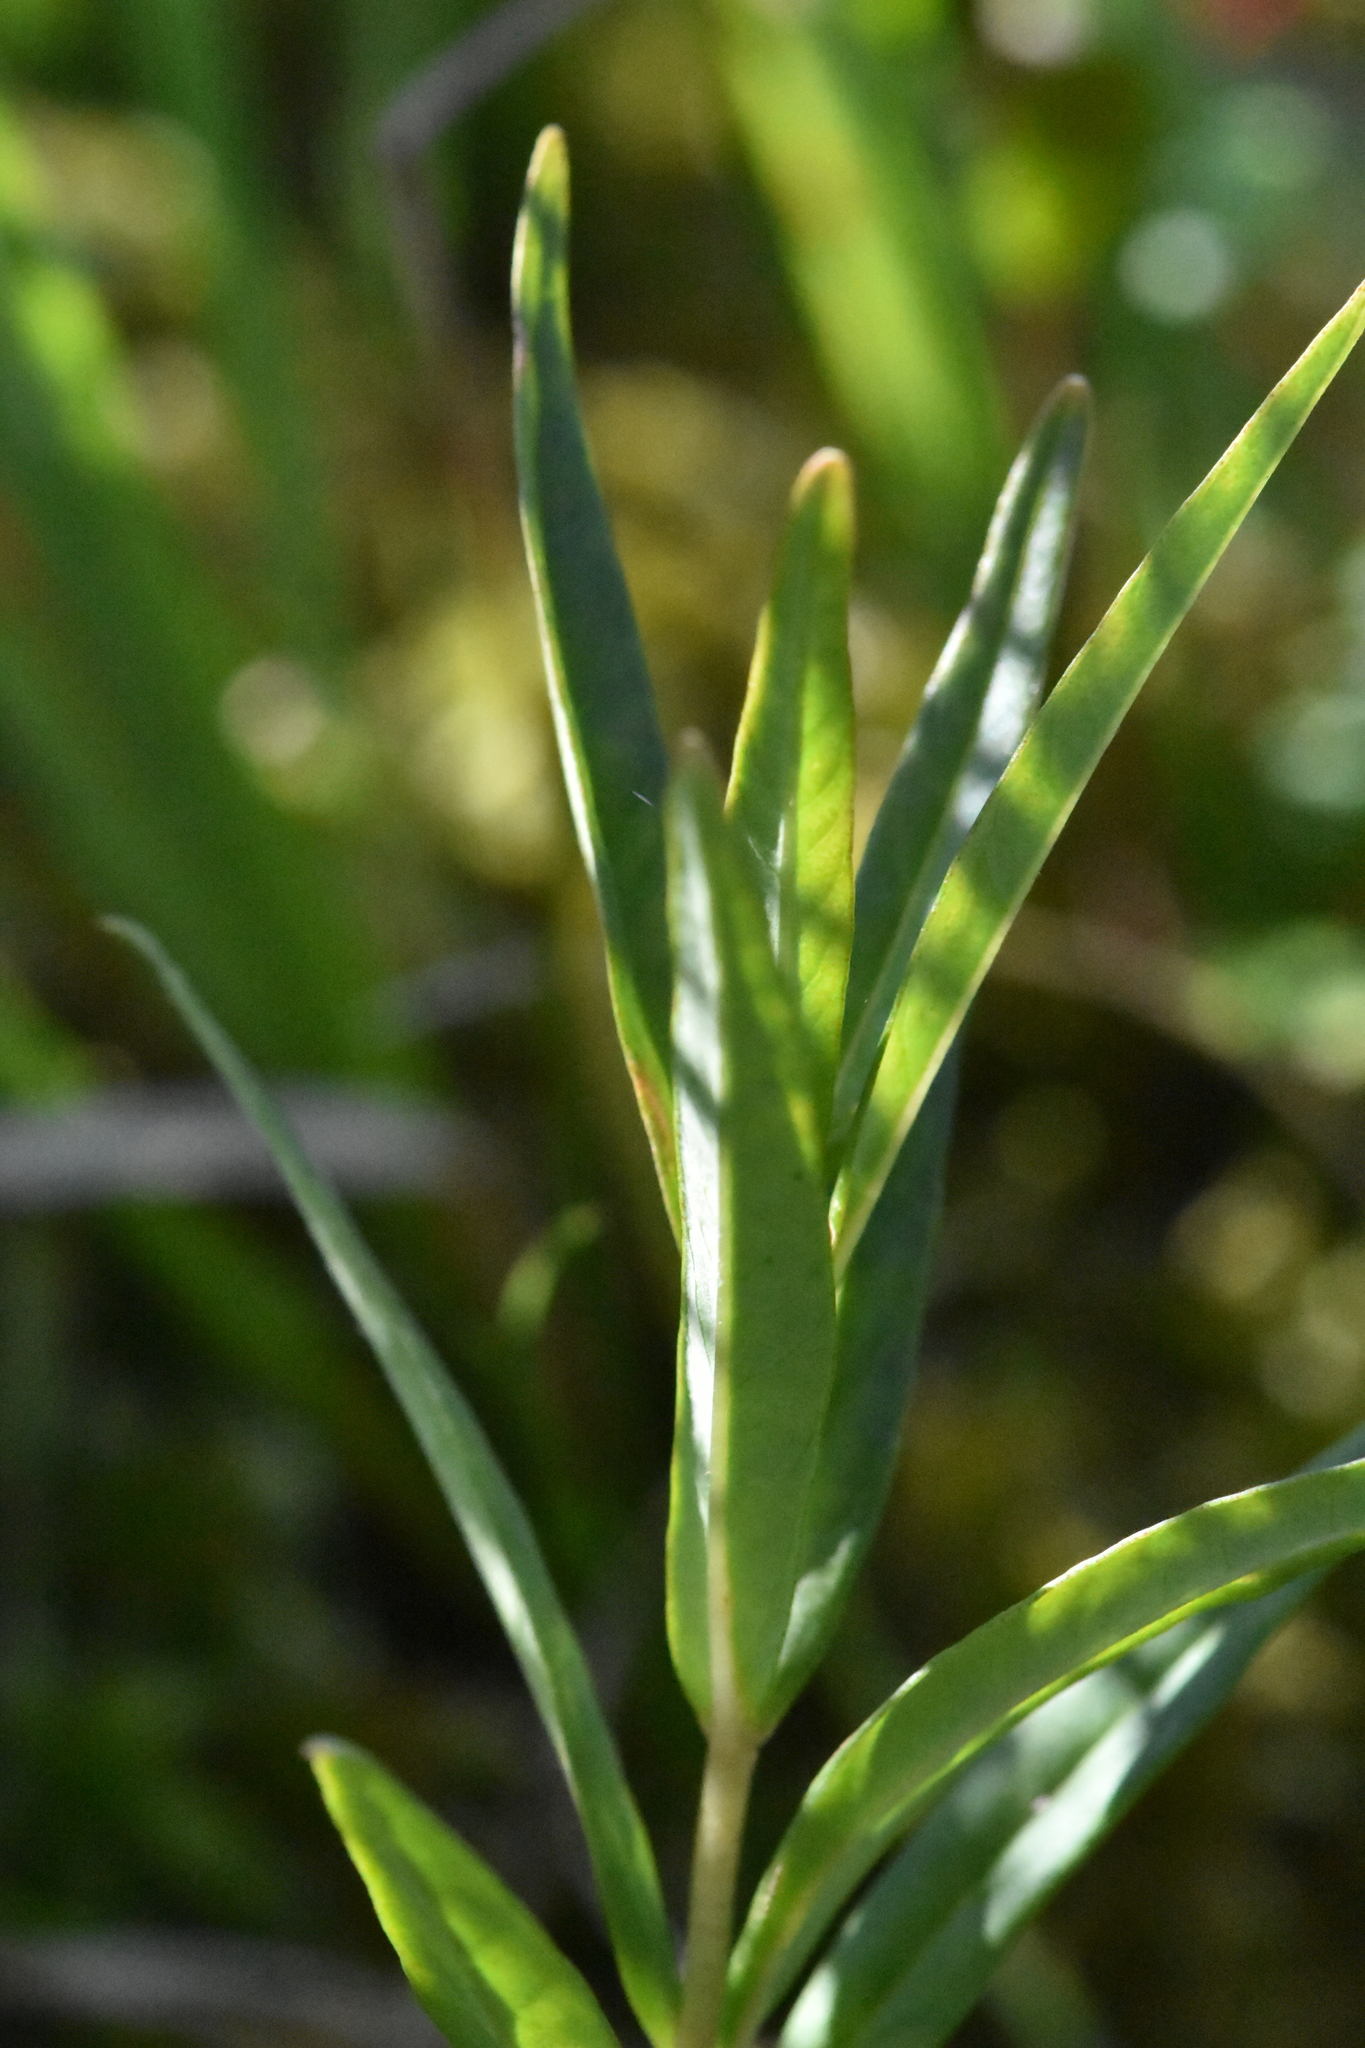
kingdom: Plantae
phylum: Tracheophyta
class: Magnoliopsida
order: Ericales
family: Primulaceae
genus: Lysimachia
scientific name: Lysimachia thyrsiflora
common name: Tufted loosestrife
